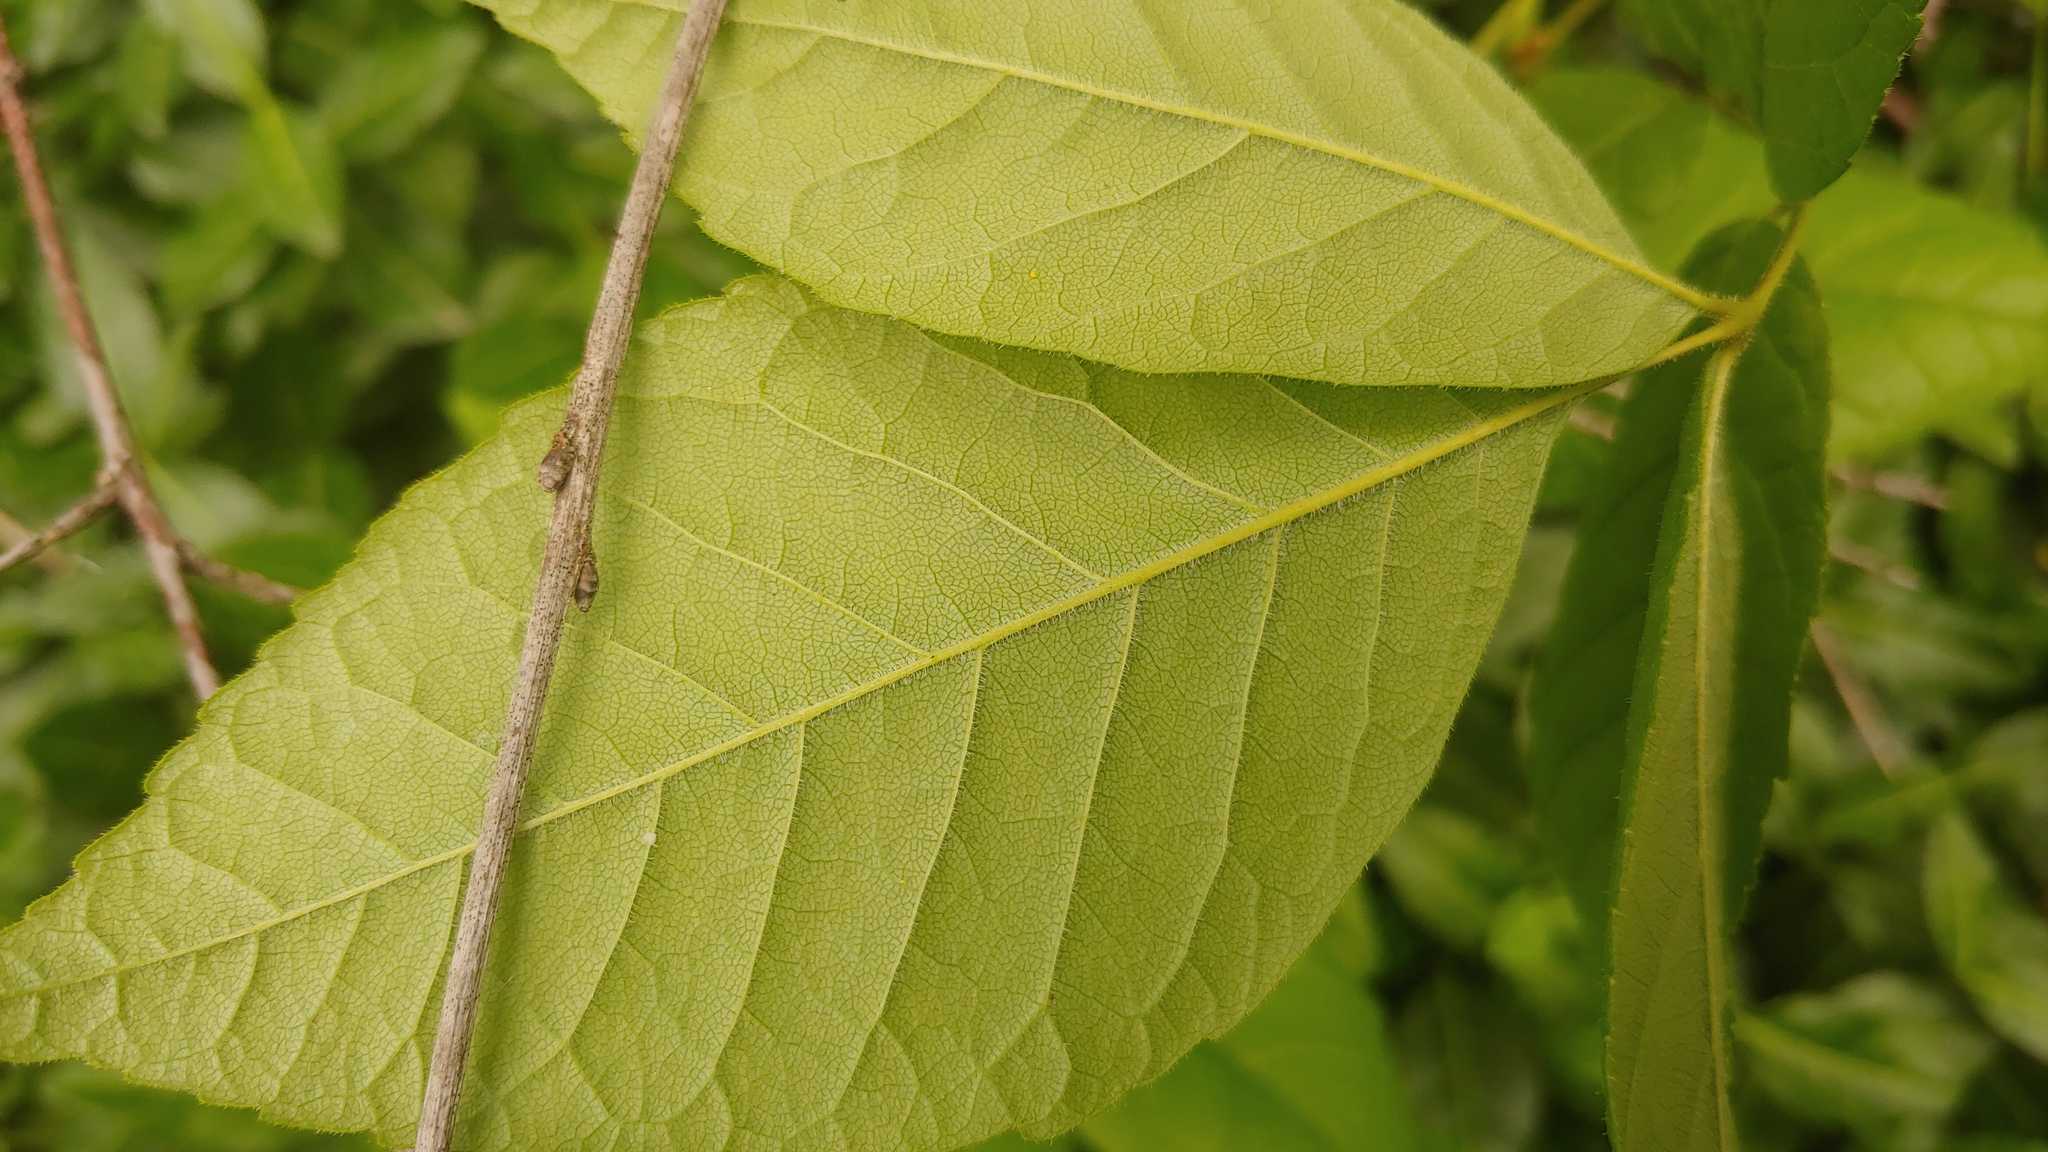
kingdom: Plantae
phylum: Tracheophyta
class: Magnoliopsida
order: Lamiales
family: Oleaceae
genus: Fraxinus
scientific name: Fraxinus pennsylvanica
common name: Green ash
